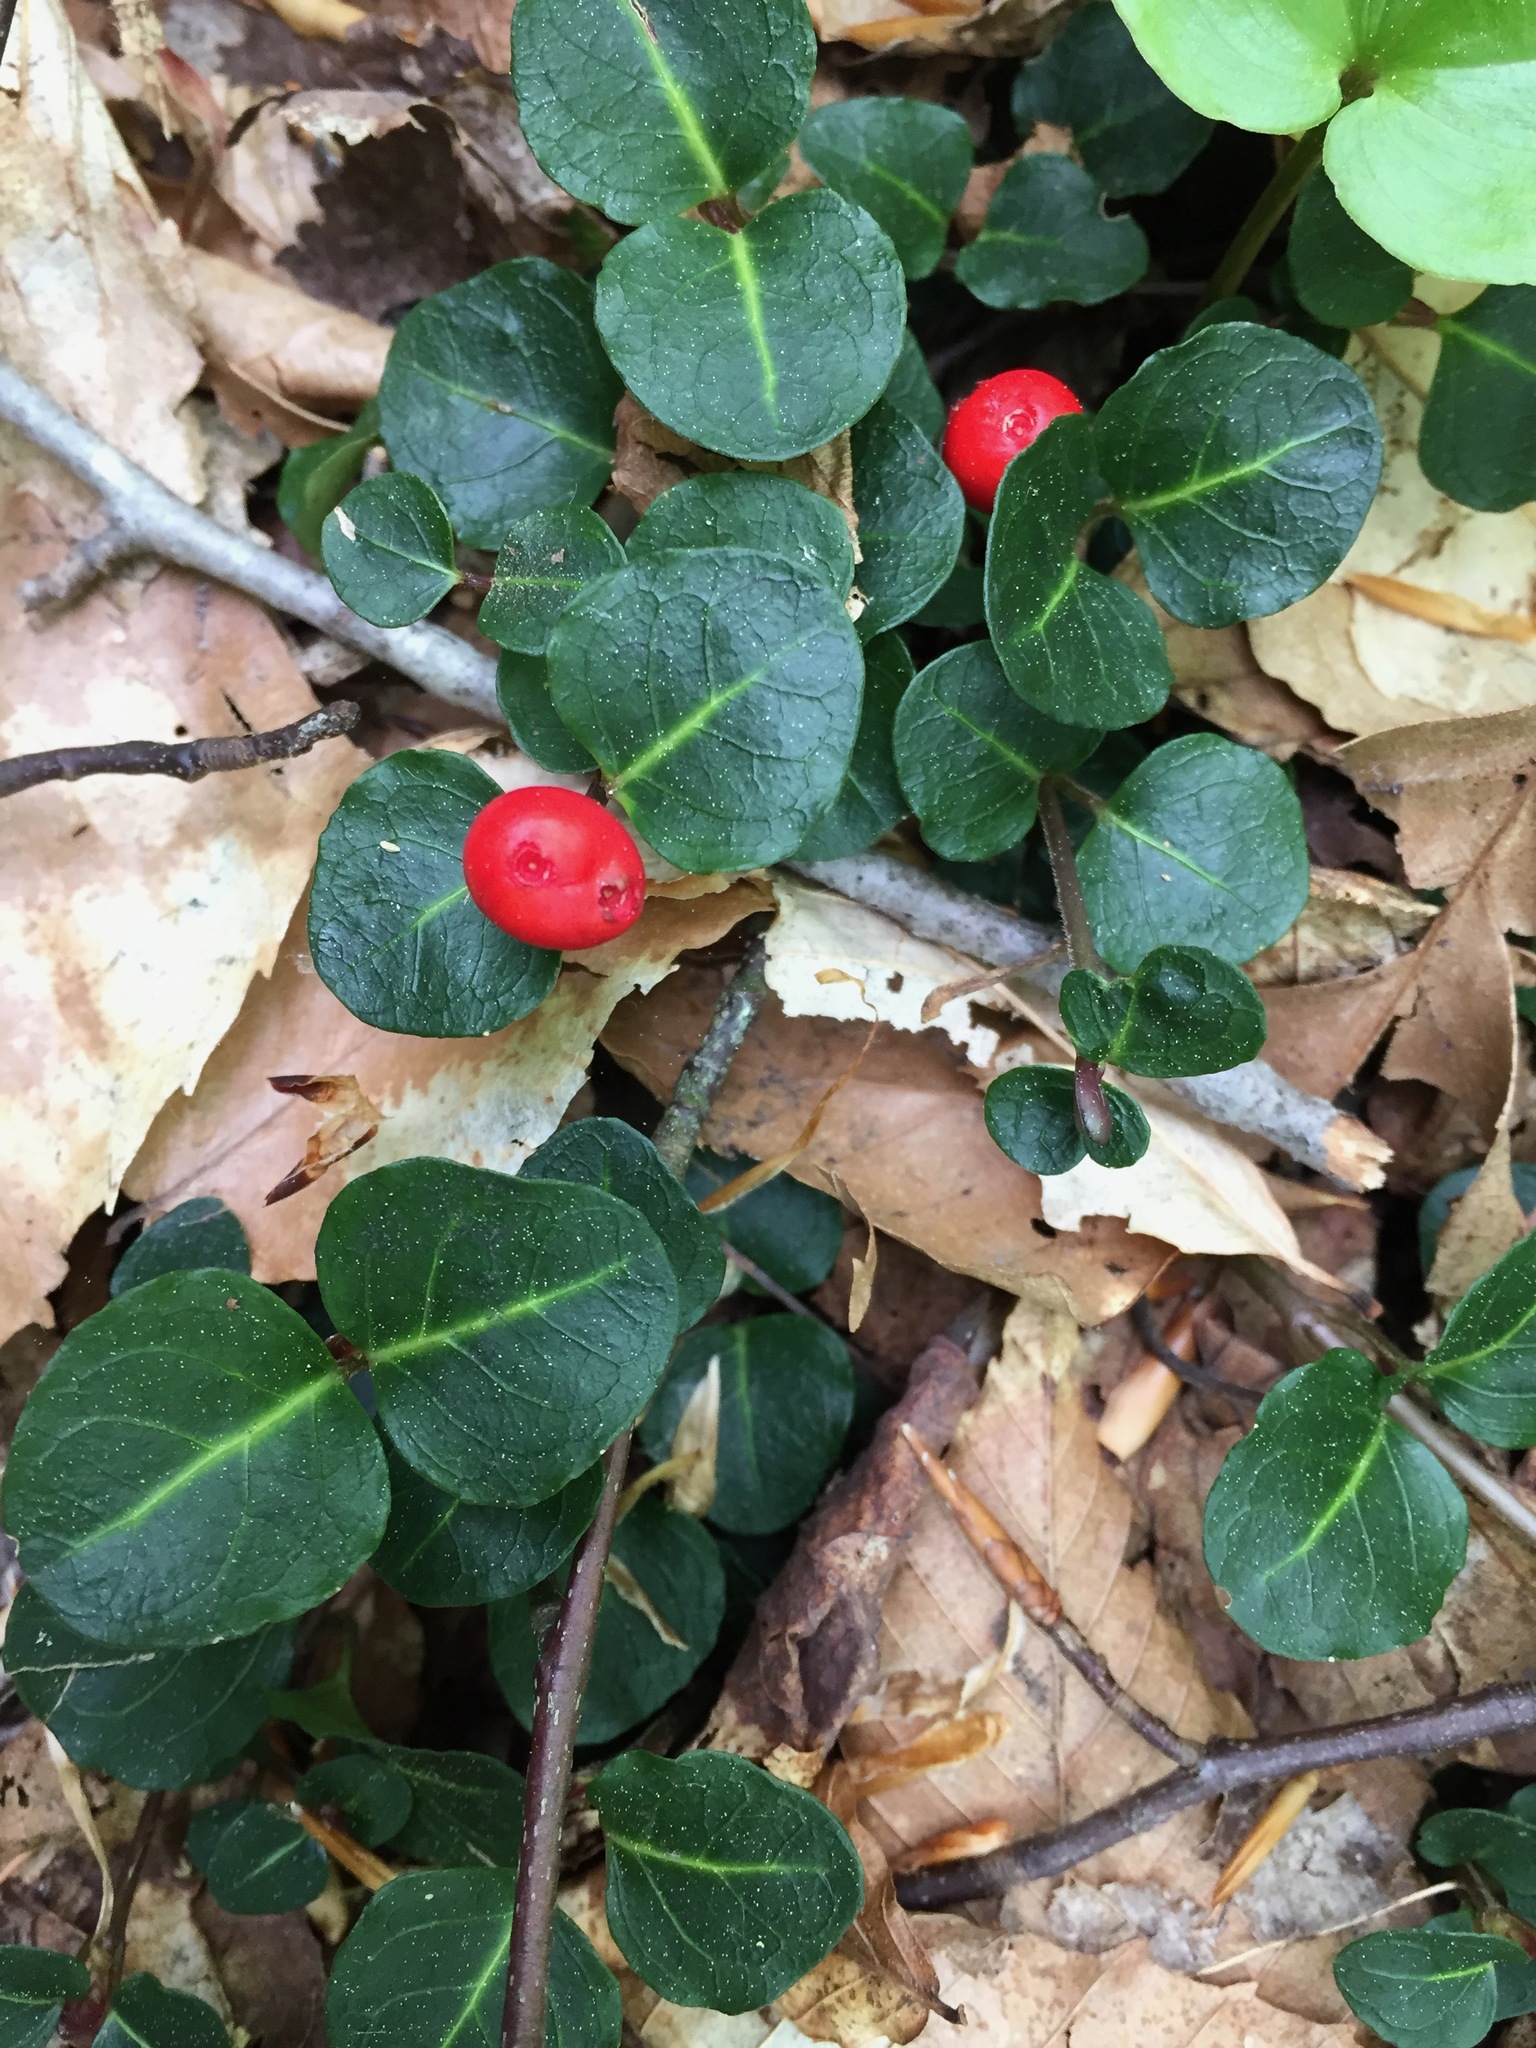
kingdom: Plantae
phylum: Tracheophyta
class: Magnoliopsida
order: Gentianales
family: Rubiaceae
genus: Mitchella
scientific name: Mitchella repens
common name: Partridge-berry
